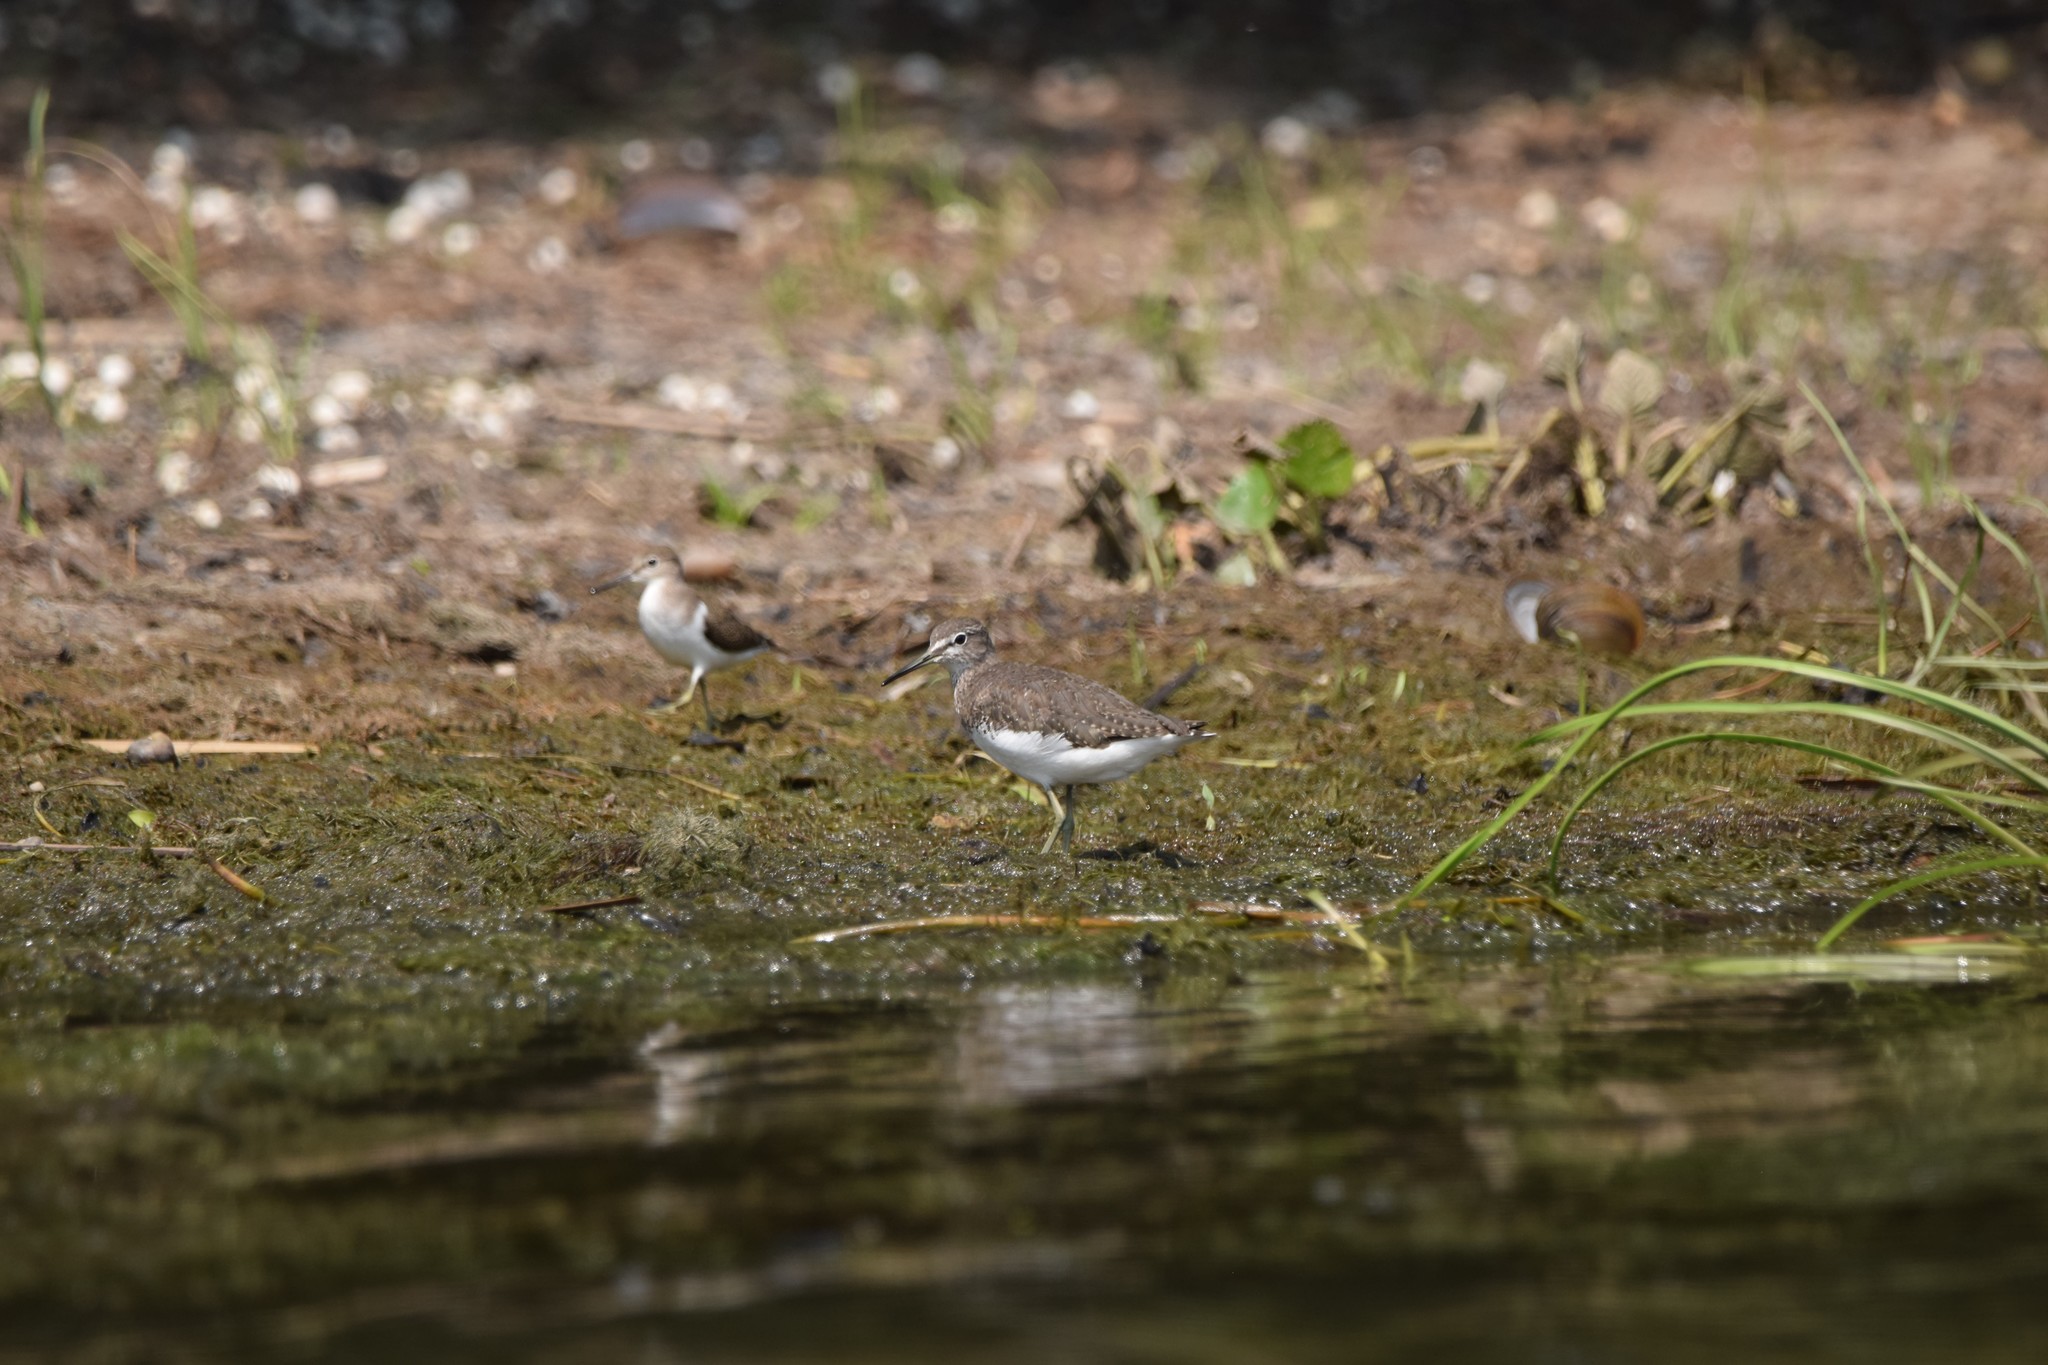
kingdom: Animalia
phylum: Chordata
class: Aves
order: Charadriiformes
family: Scolopacidae
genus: Tringa
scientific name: Tringa ochropus
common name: Green sandpiper
